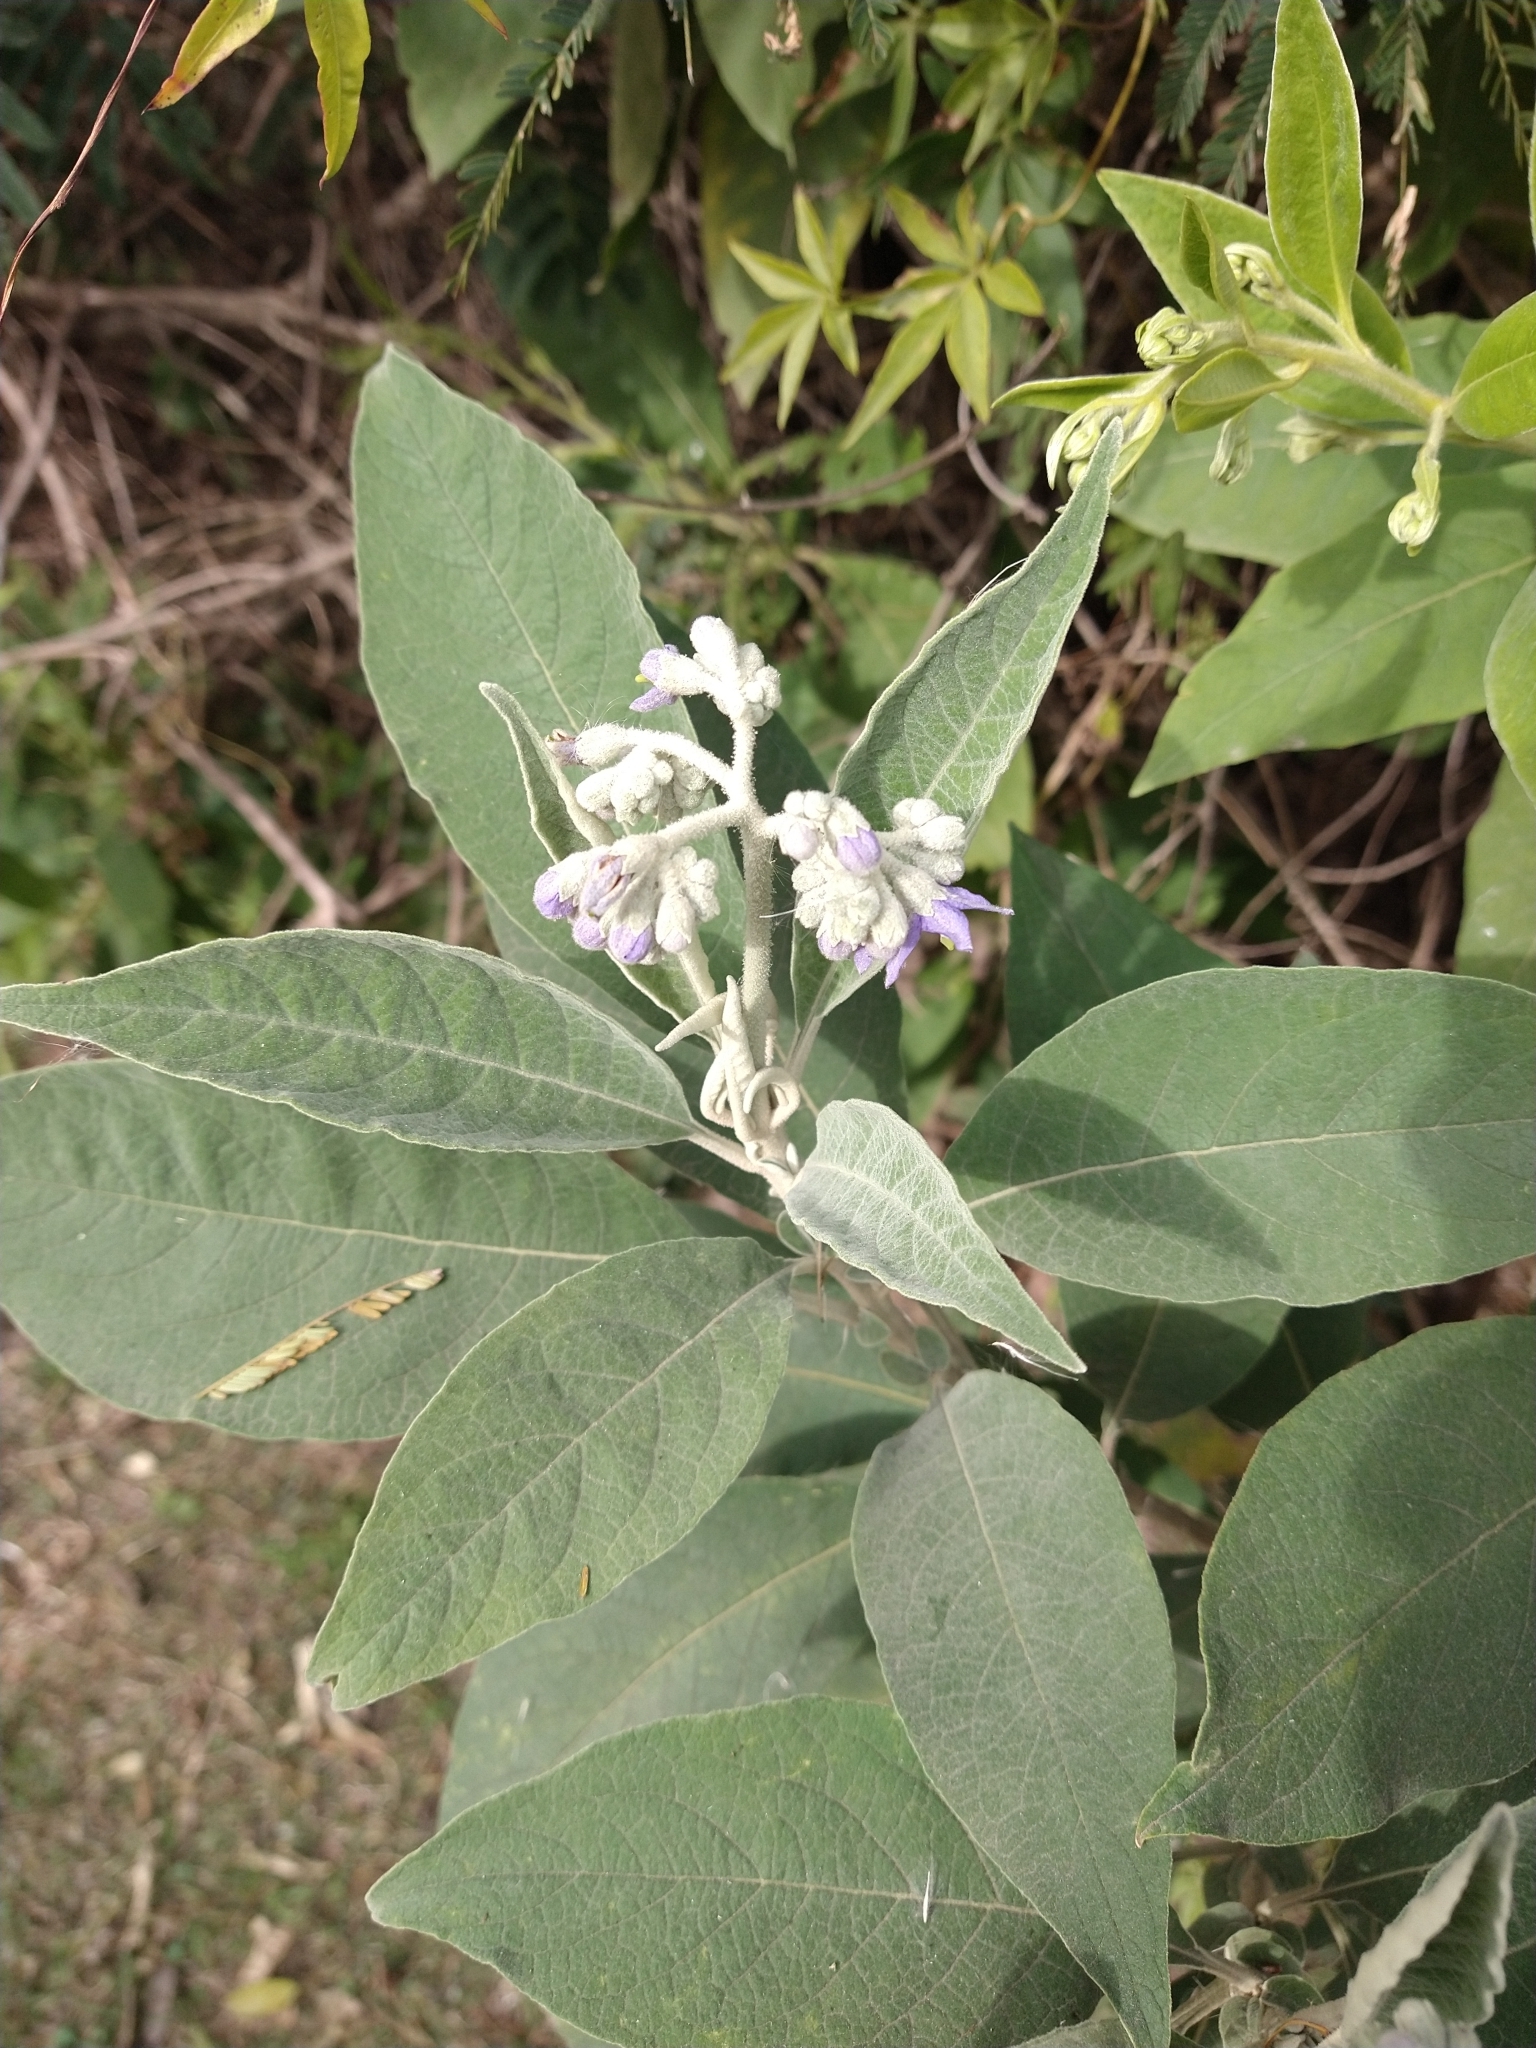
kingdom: Plantae
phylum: Tracheophyta
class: Magnoliopsida
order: Solanales
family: Solanaceae
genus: Solanum
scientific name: Solanum granulosoleprosum
